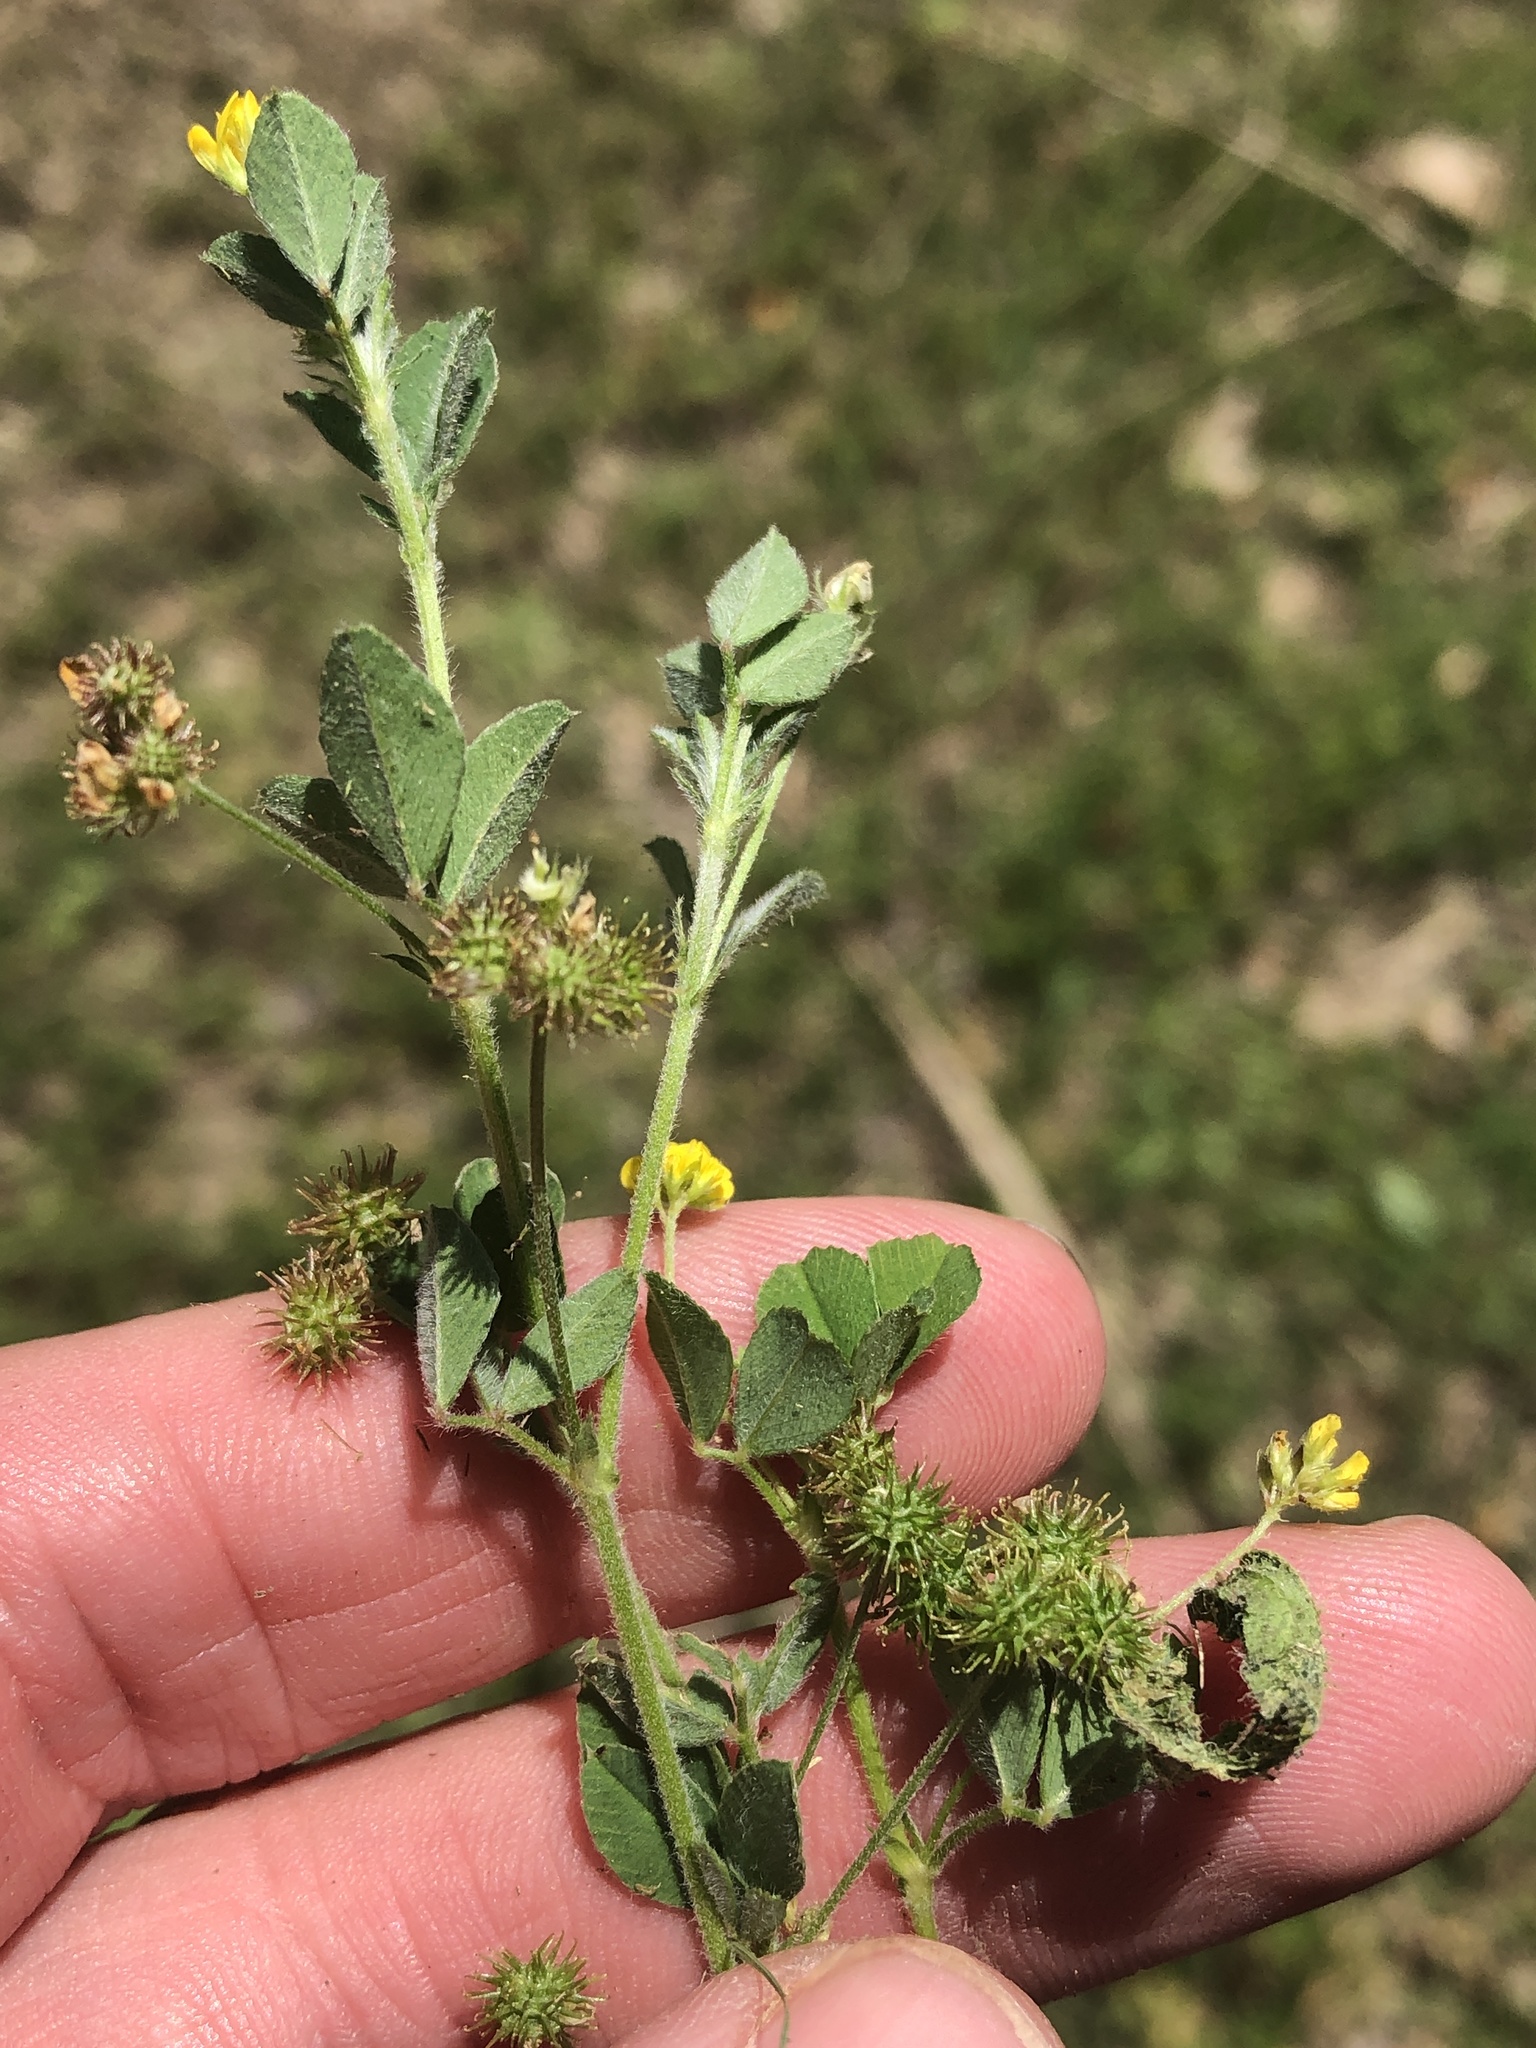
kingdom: Plantae
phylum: Tracheophyta
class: Magnoliopsida
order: Fabales
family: Fabaceae
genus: Medicago
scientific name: Medicago minima
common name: Little bur-clover
